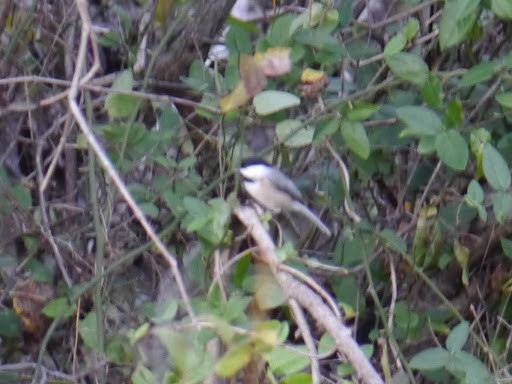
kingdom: Animalia
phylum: Chordata
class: Aves
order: Passeriformes
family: Paridae
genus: Poecile
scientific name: Poecile carolinensis
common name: Carolina chickadee
